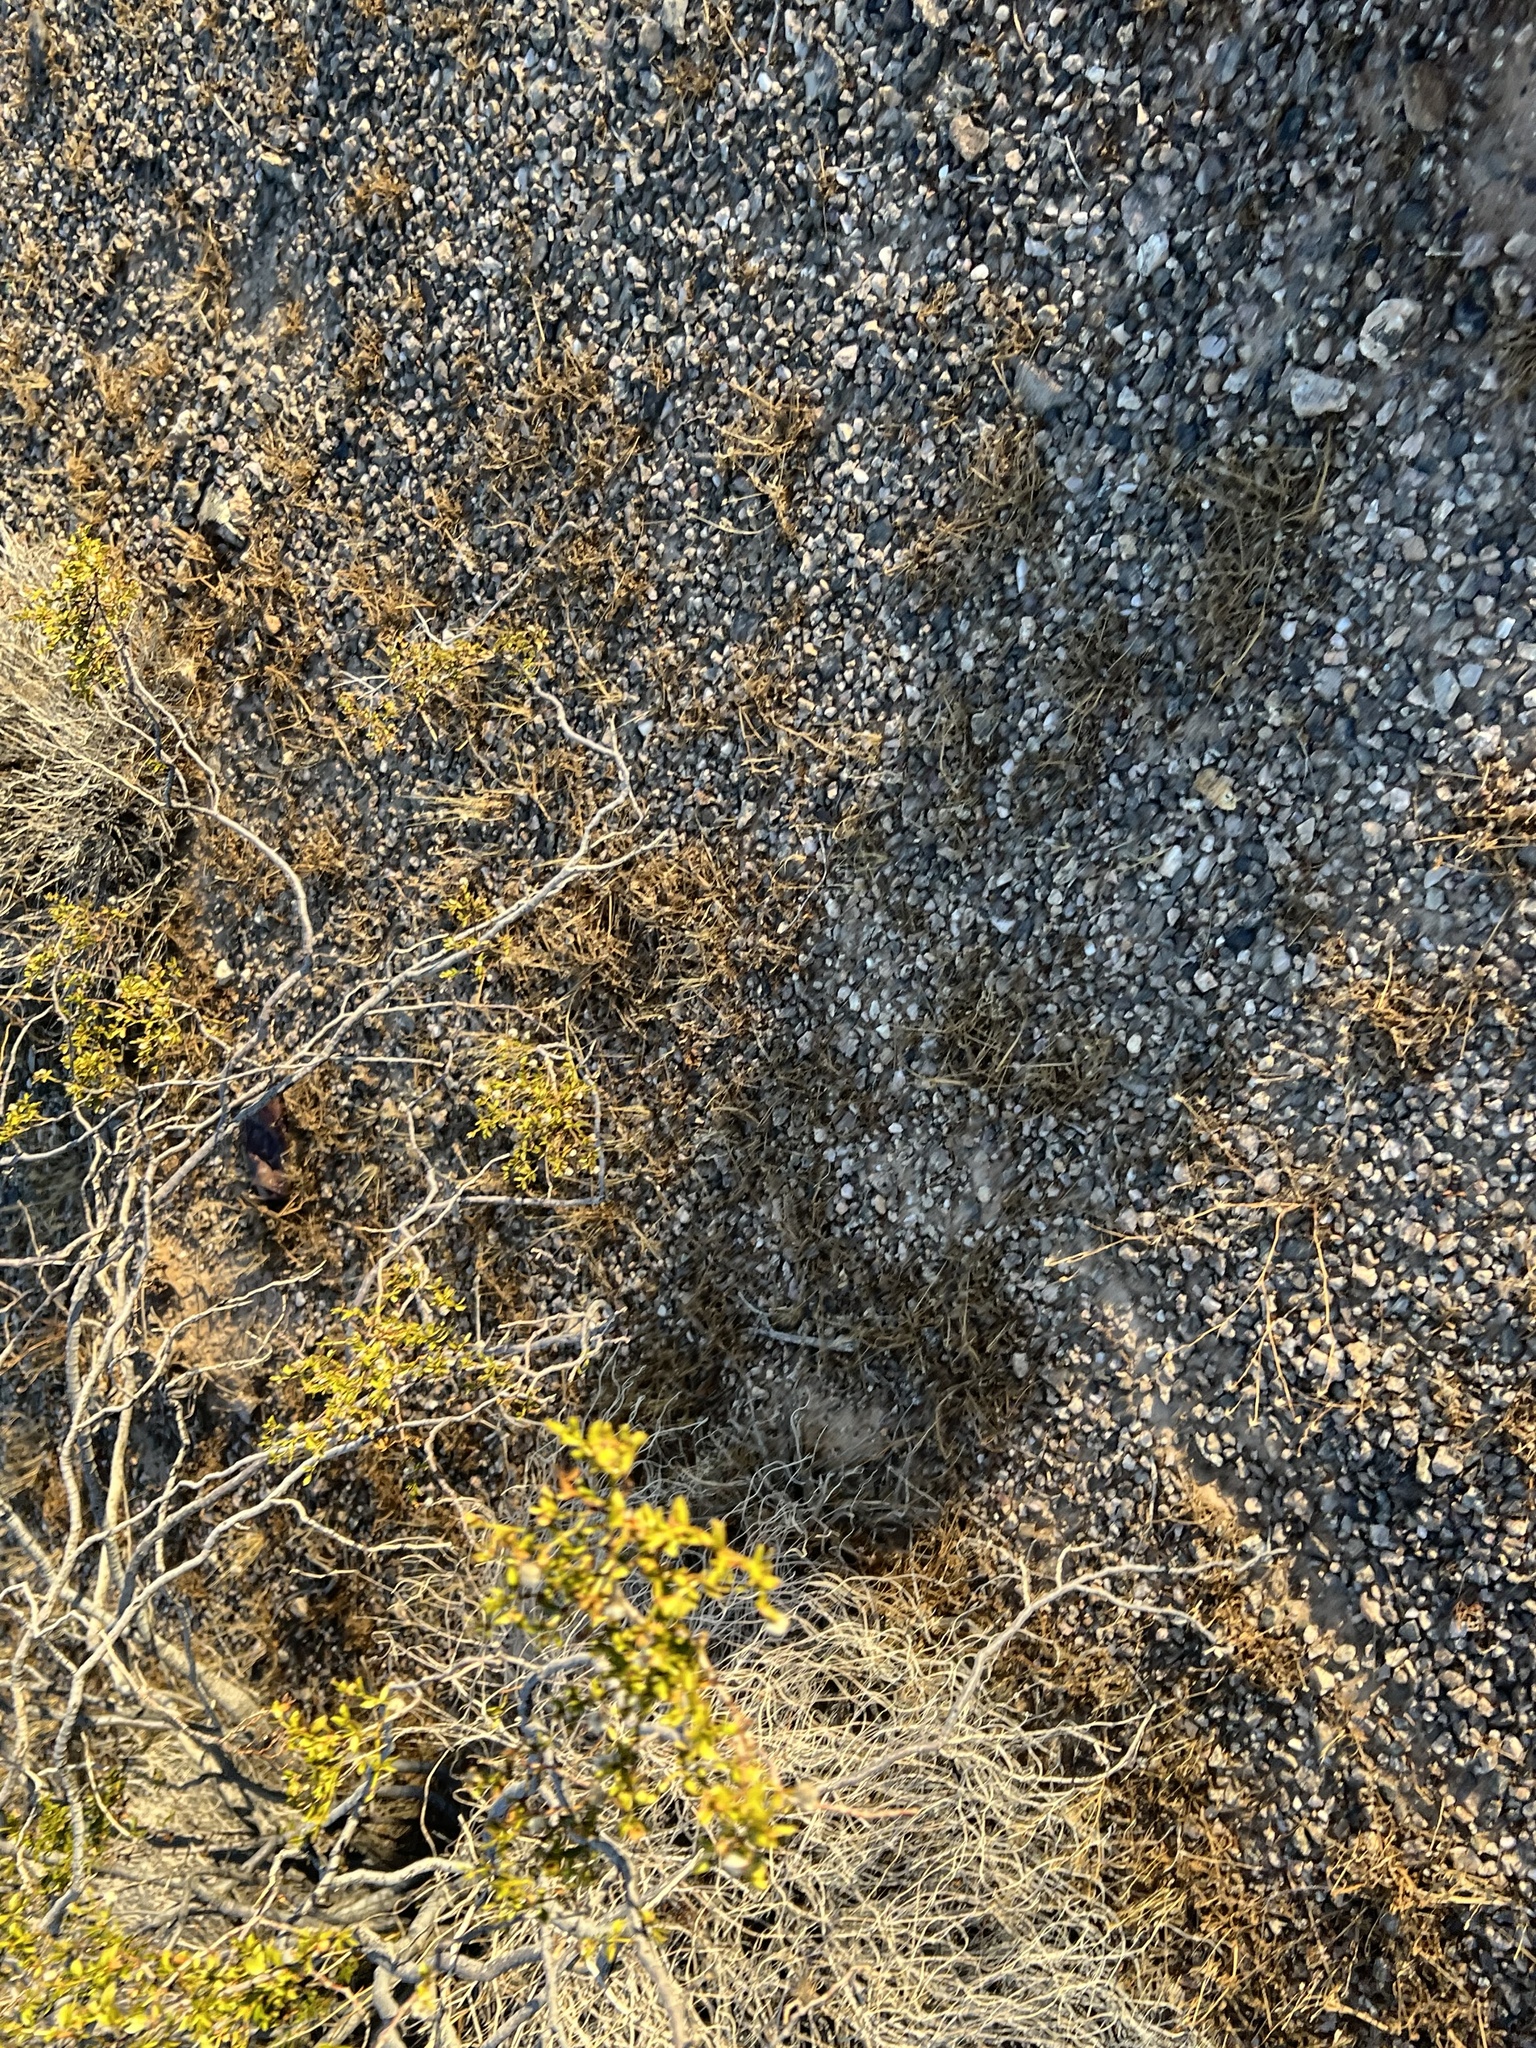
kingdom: Plantae
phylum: Tracheophyta
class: Magnoliopsida
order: Zygophyllales
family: Zygophyllaceae
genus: Larrea
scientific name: Larrea tridentata
